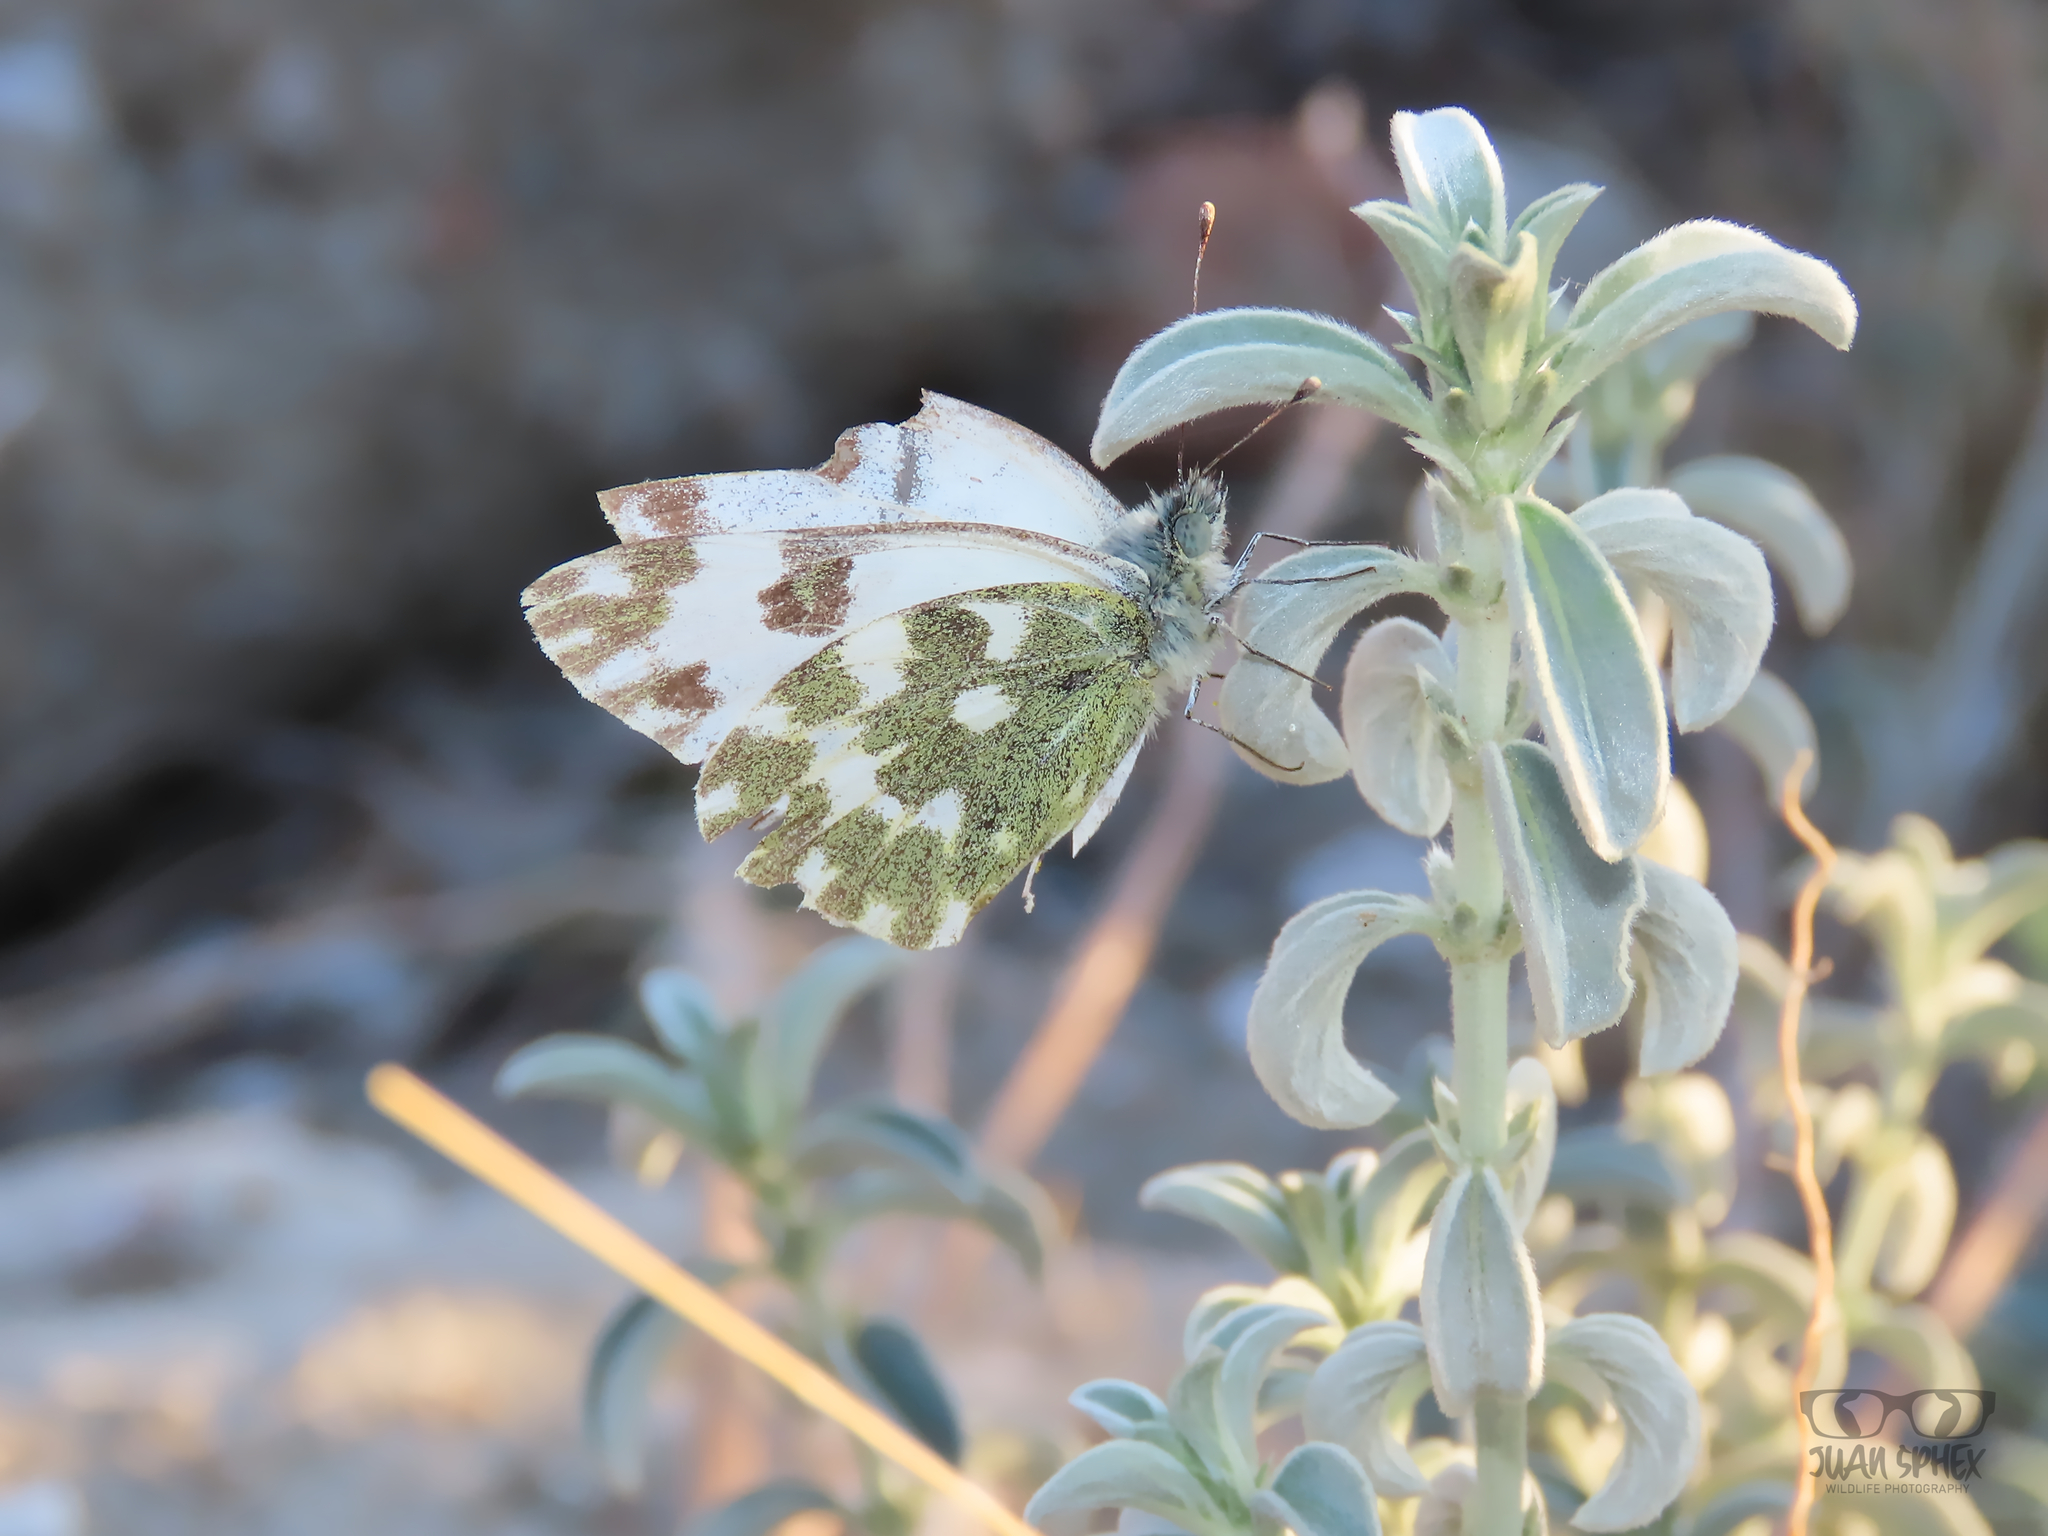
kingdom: Animalia
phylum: Arthropoda
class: Insecta
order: Lepidoptera
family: Pieridae
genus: Pontia
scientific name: Pontia daplidice
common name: Bath white
